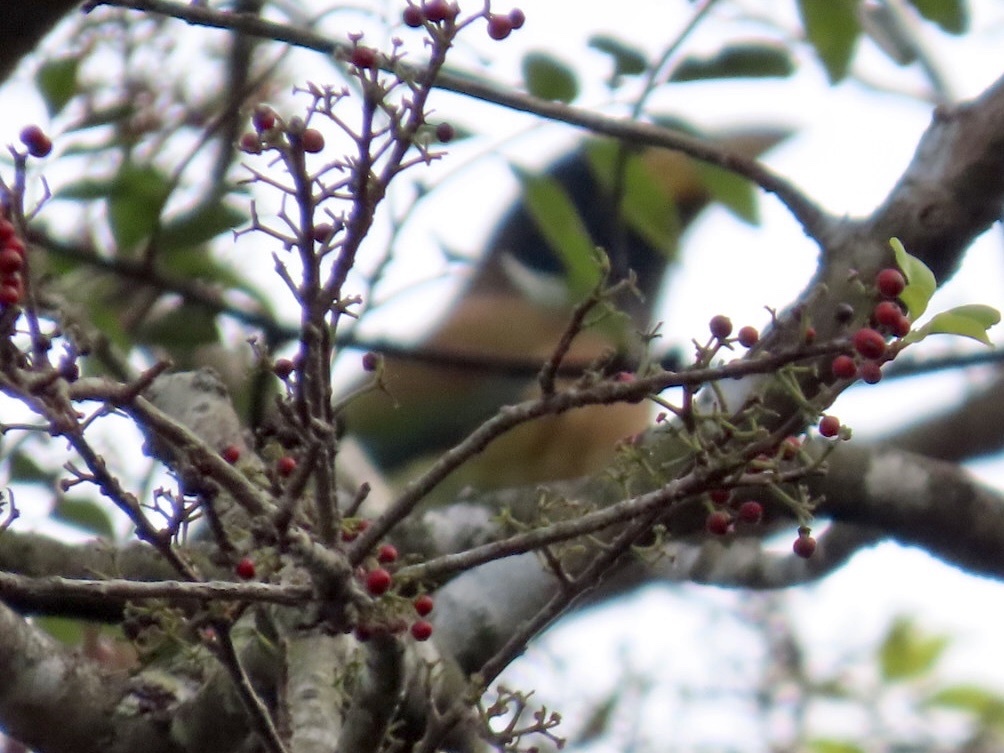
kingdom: Animalia
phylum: Chordata
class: Aves
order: Piciformes
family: Megalaimidae
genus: Psilopogon
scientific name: Psilopogon virens
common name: Great barbet
